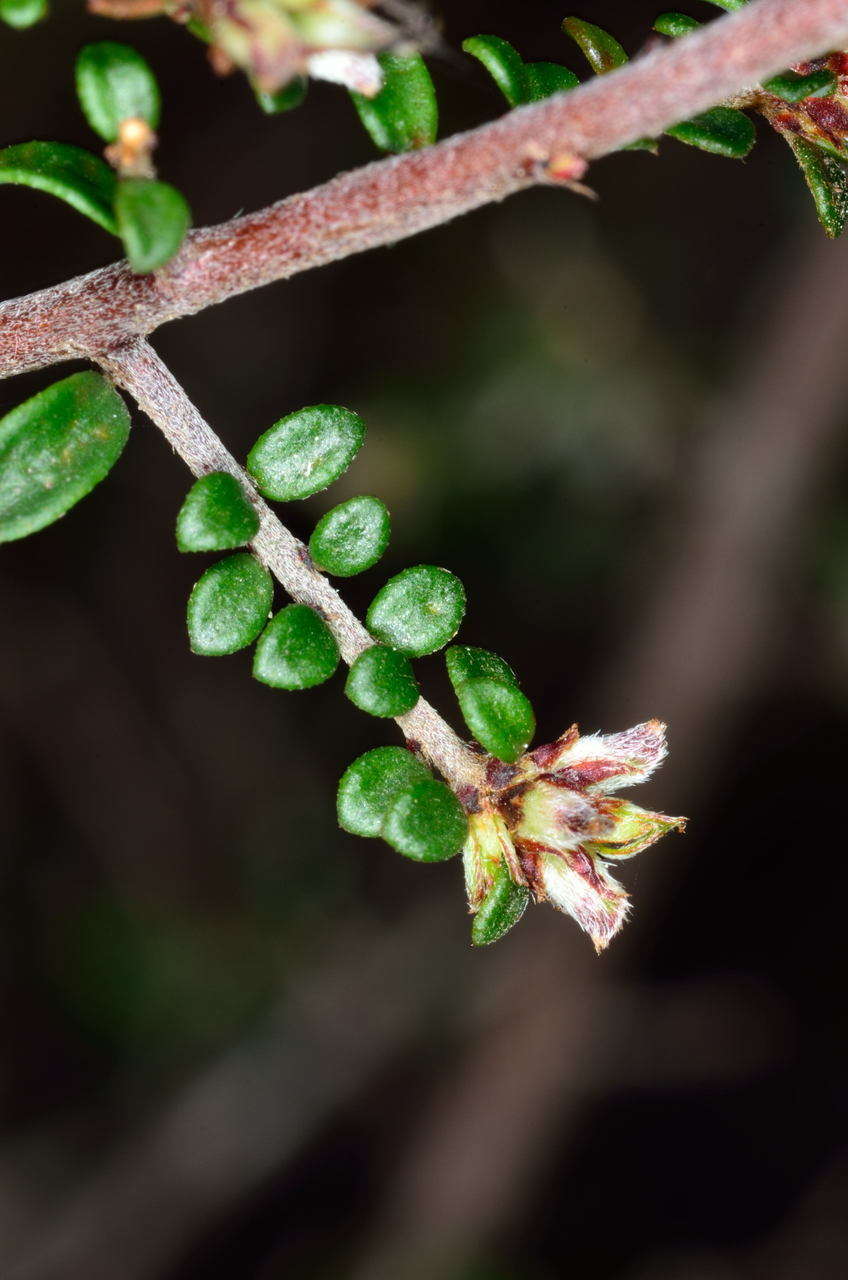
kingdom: Plantae
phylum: Tracheophyta
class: Magnoliopsida
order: Fabales
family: Fabaceae
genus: Pultenaea
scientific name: Pultenaea gunnii
